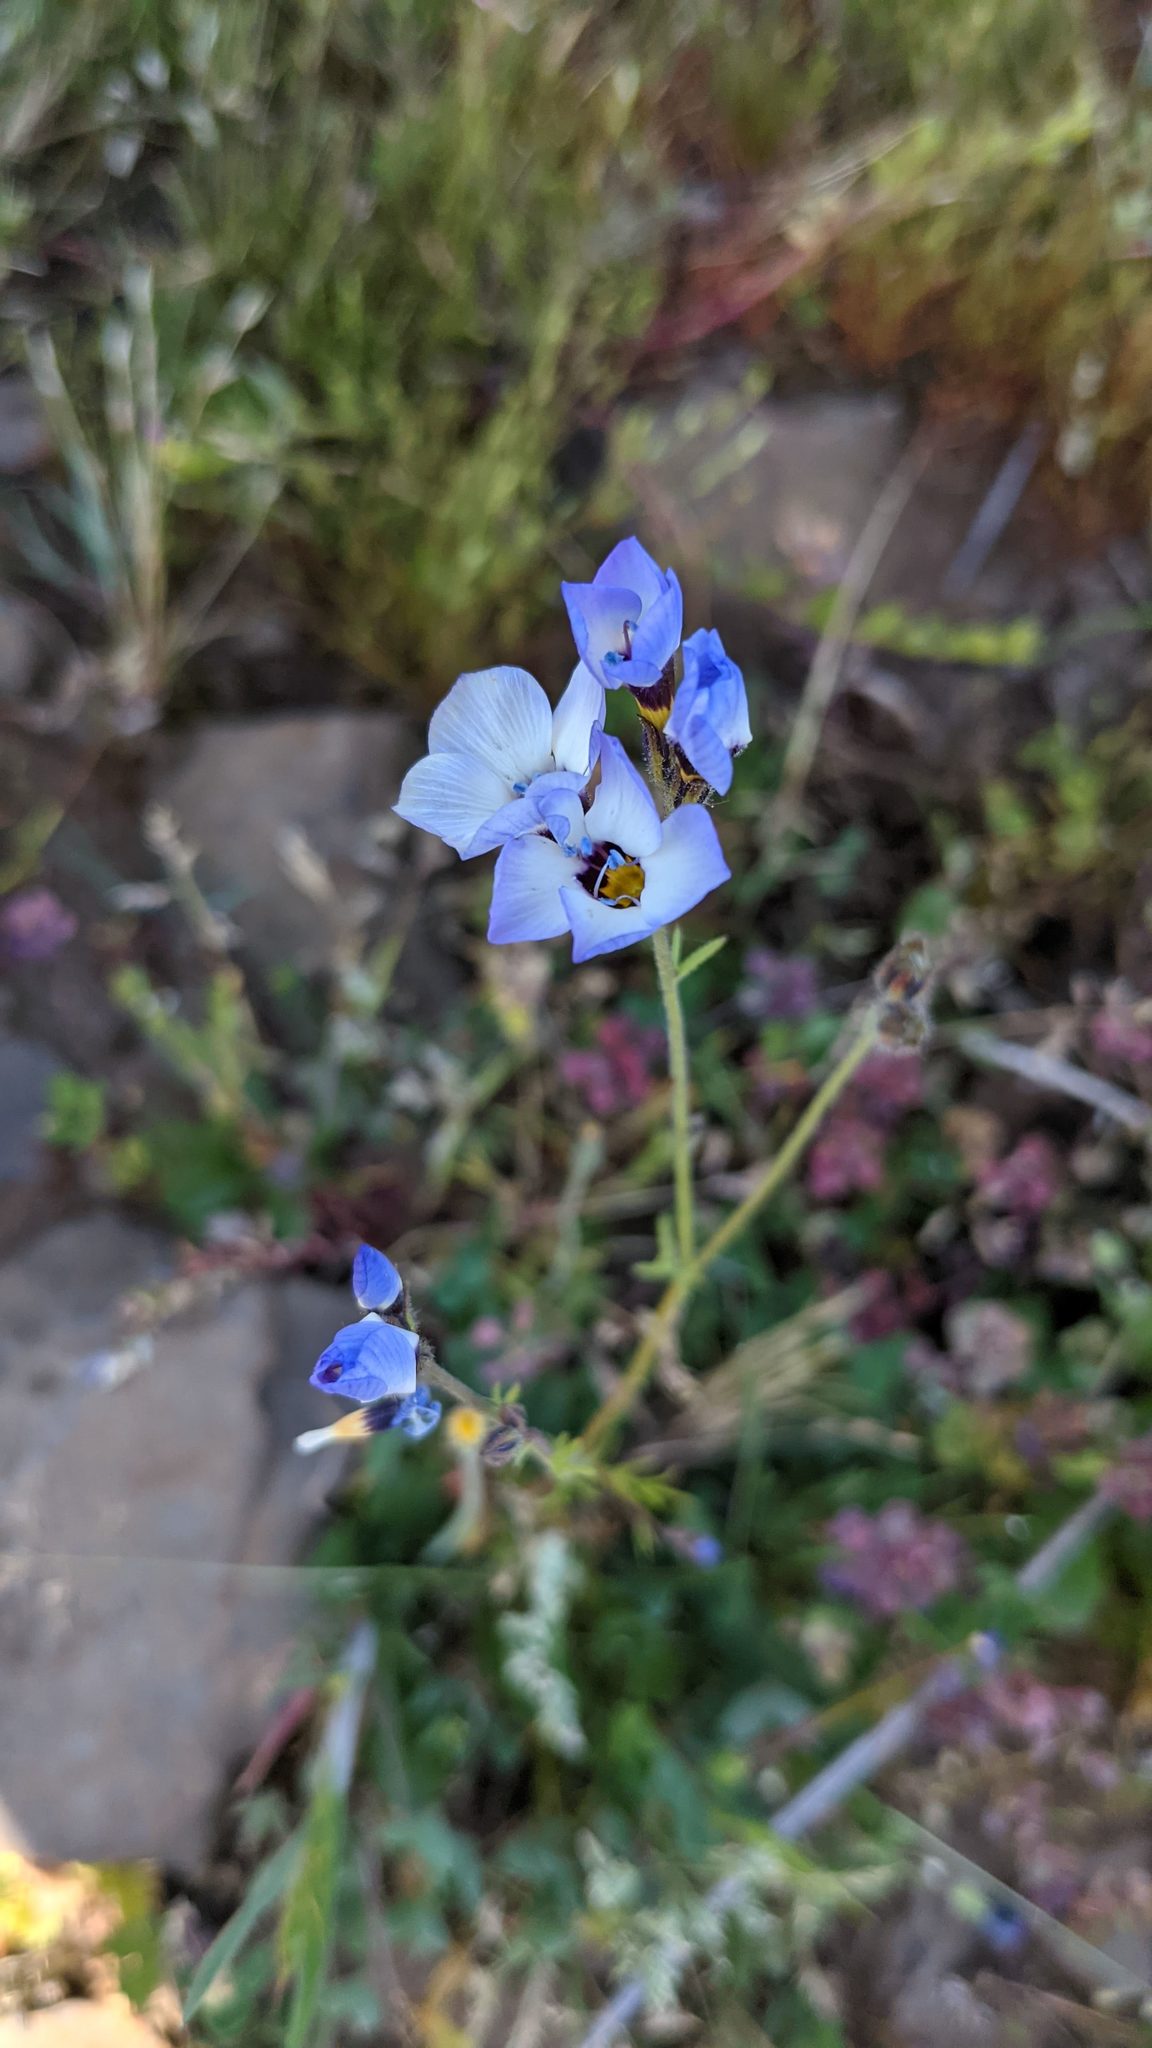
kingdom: Plantae
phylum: Tracheophyta
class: Magnoliopsida
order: Ericales
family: Polemoniaceae
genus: Gilia
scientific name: Gilia tricolor
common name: Bird's-eyes
